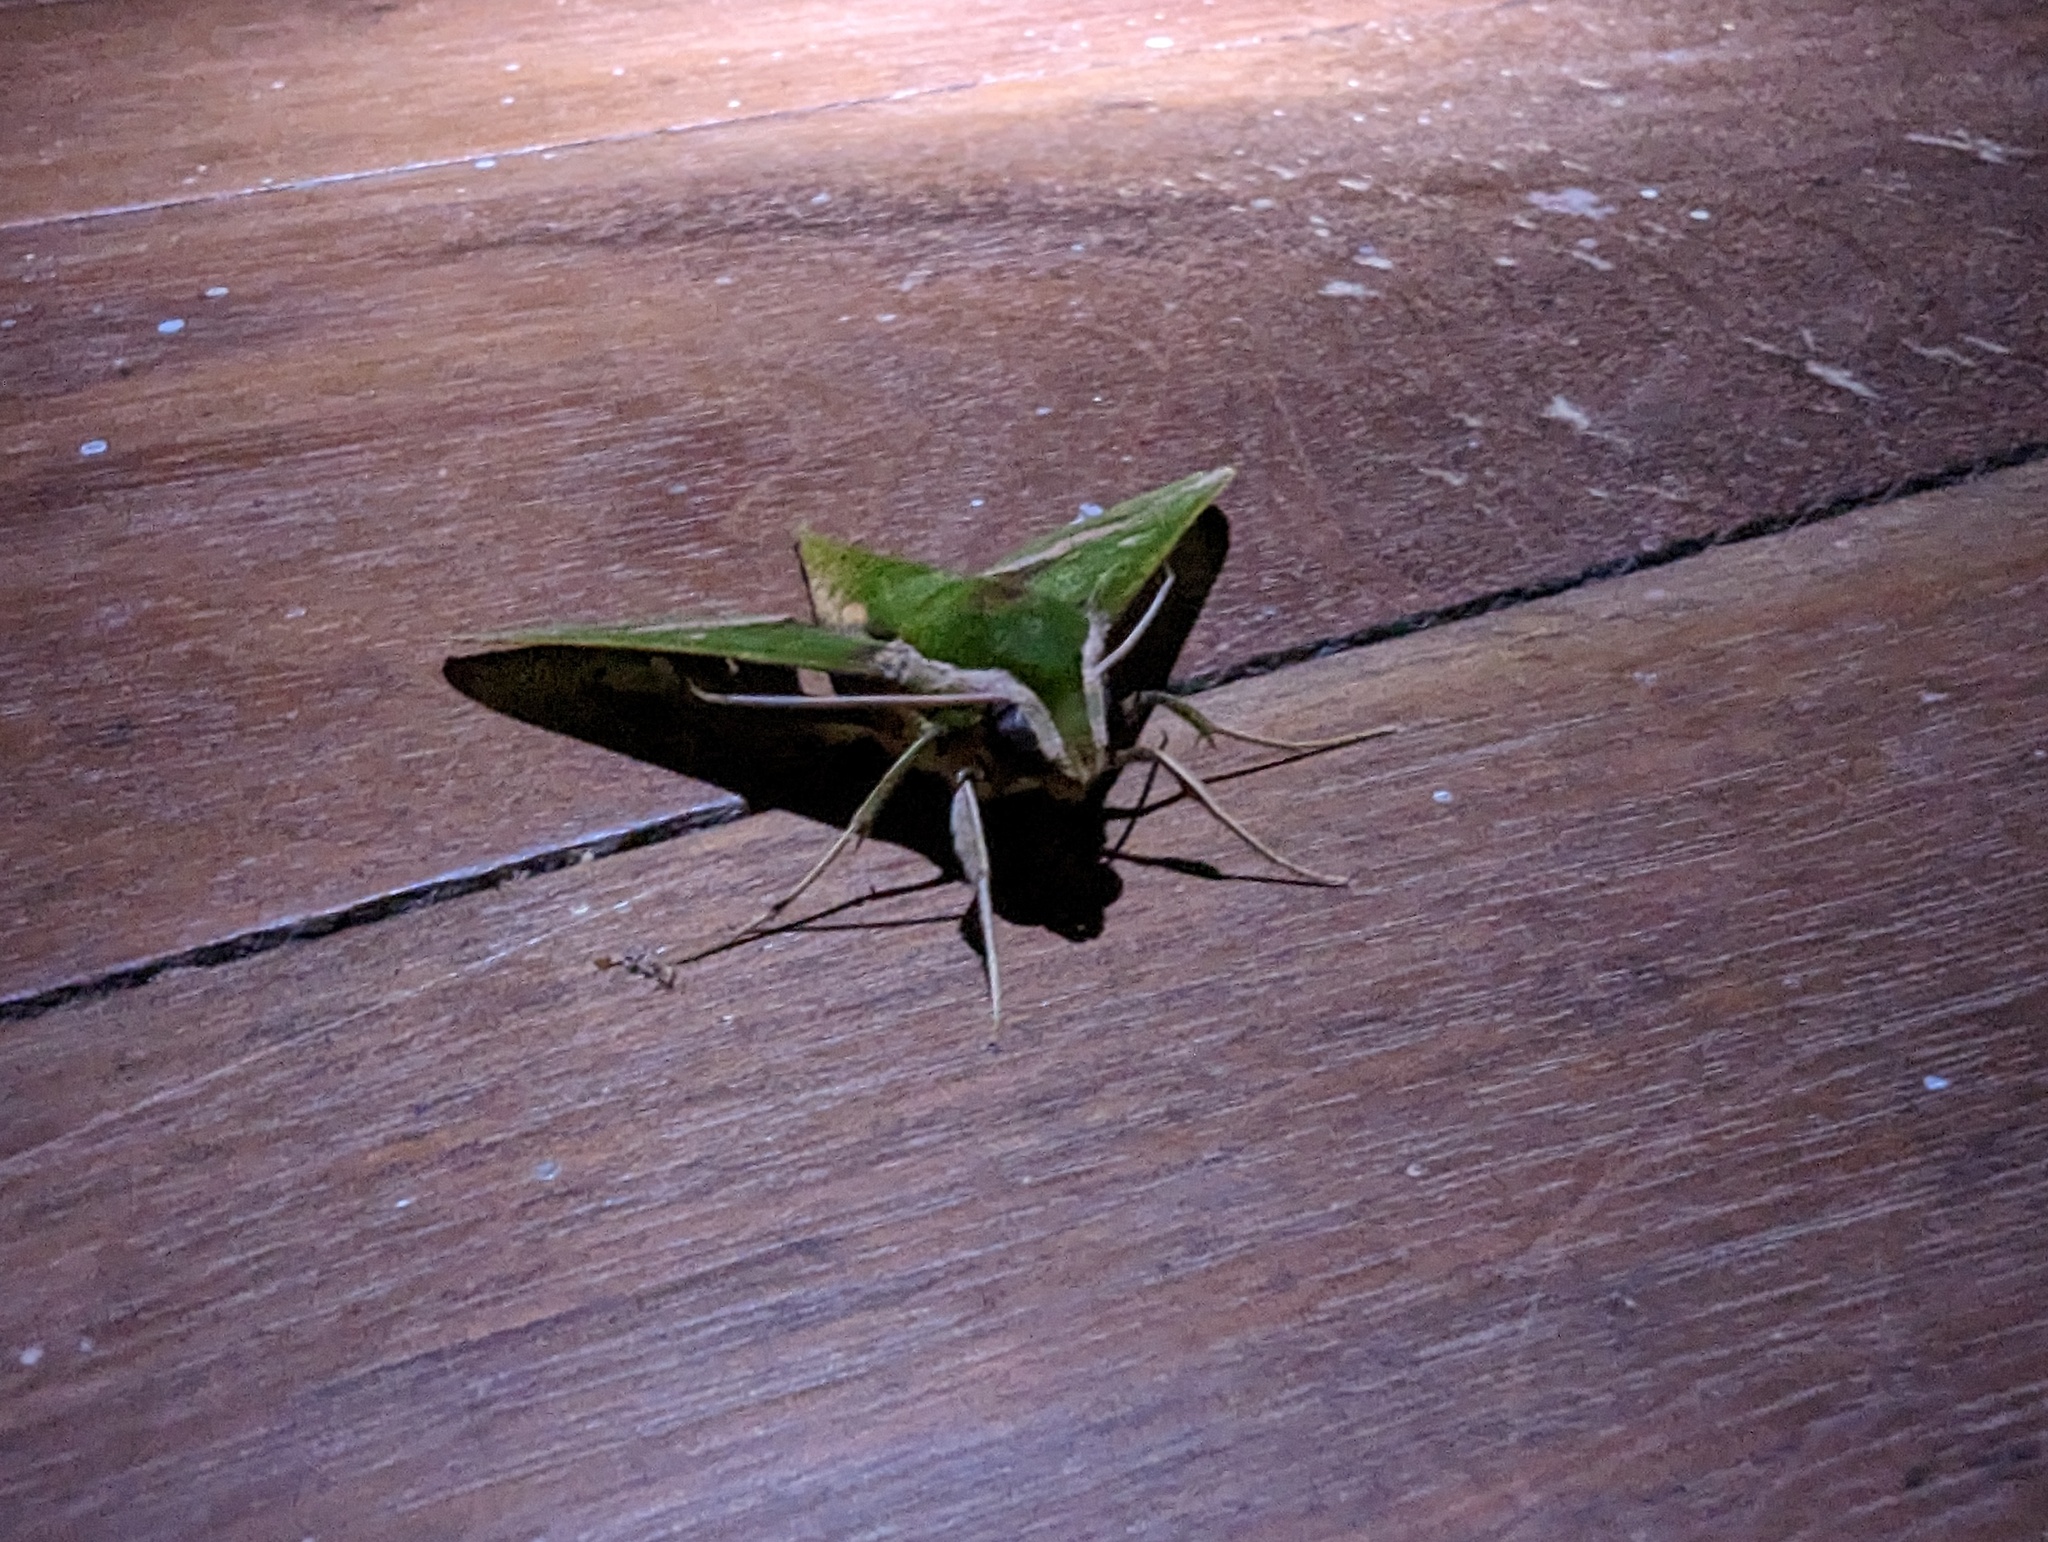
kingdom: Animalia
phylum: Arthropoda
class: Insecta
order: Lepidoptera
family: Sphingidae
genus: Xylophanes
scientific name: Xylophanes chiron
